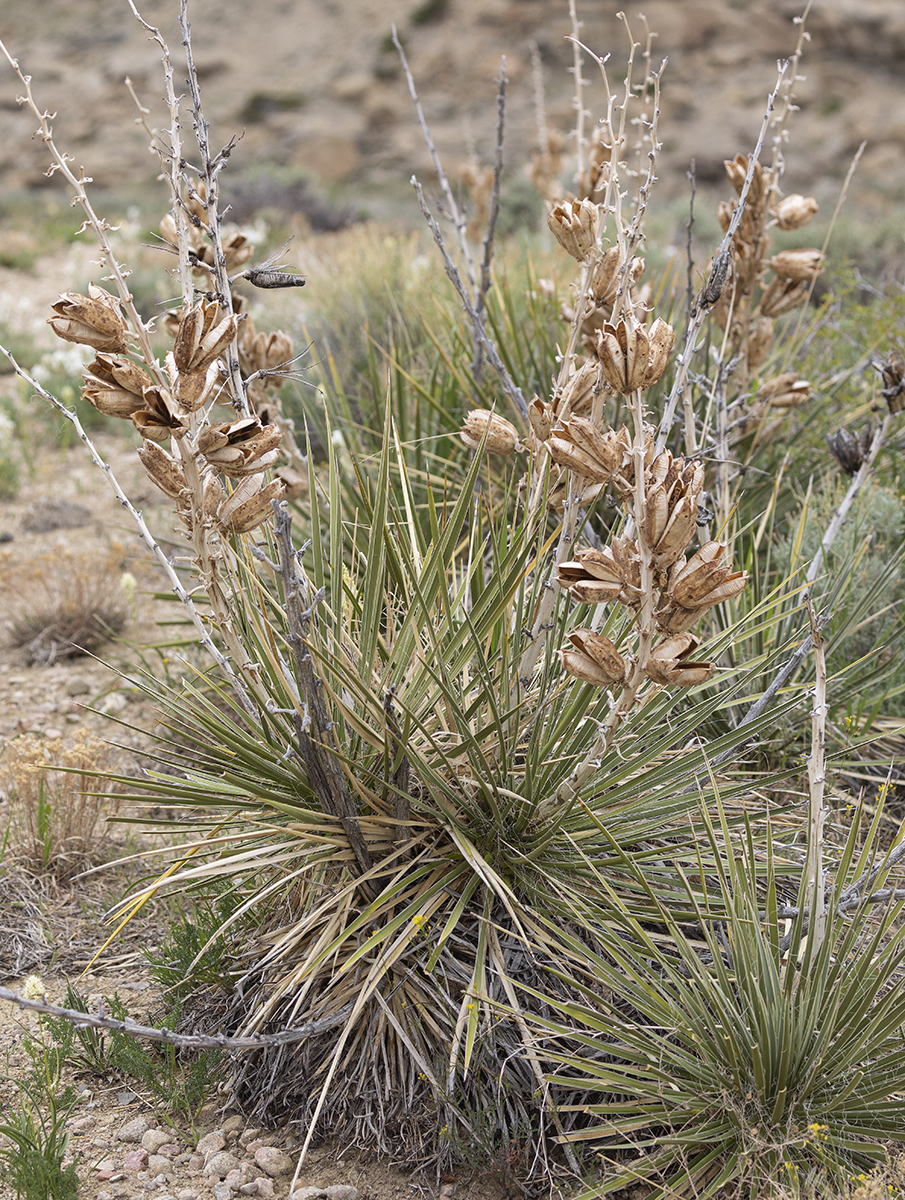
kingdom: Plantae
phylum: Tracheophyta
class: Liliopsida
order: Asparagales
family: Asparagaceae
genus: Yucca
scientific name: Yucca glauca
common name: Great plains yucca
